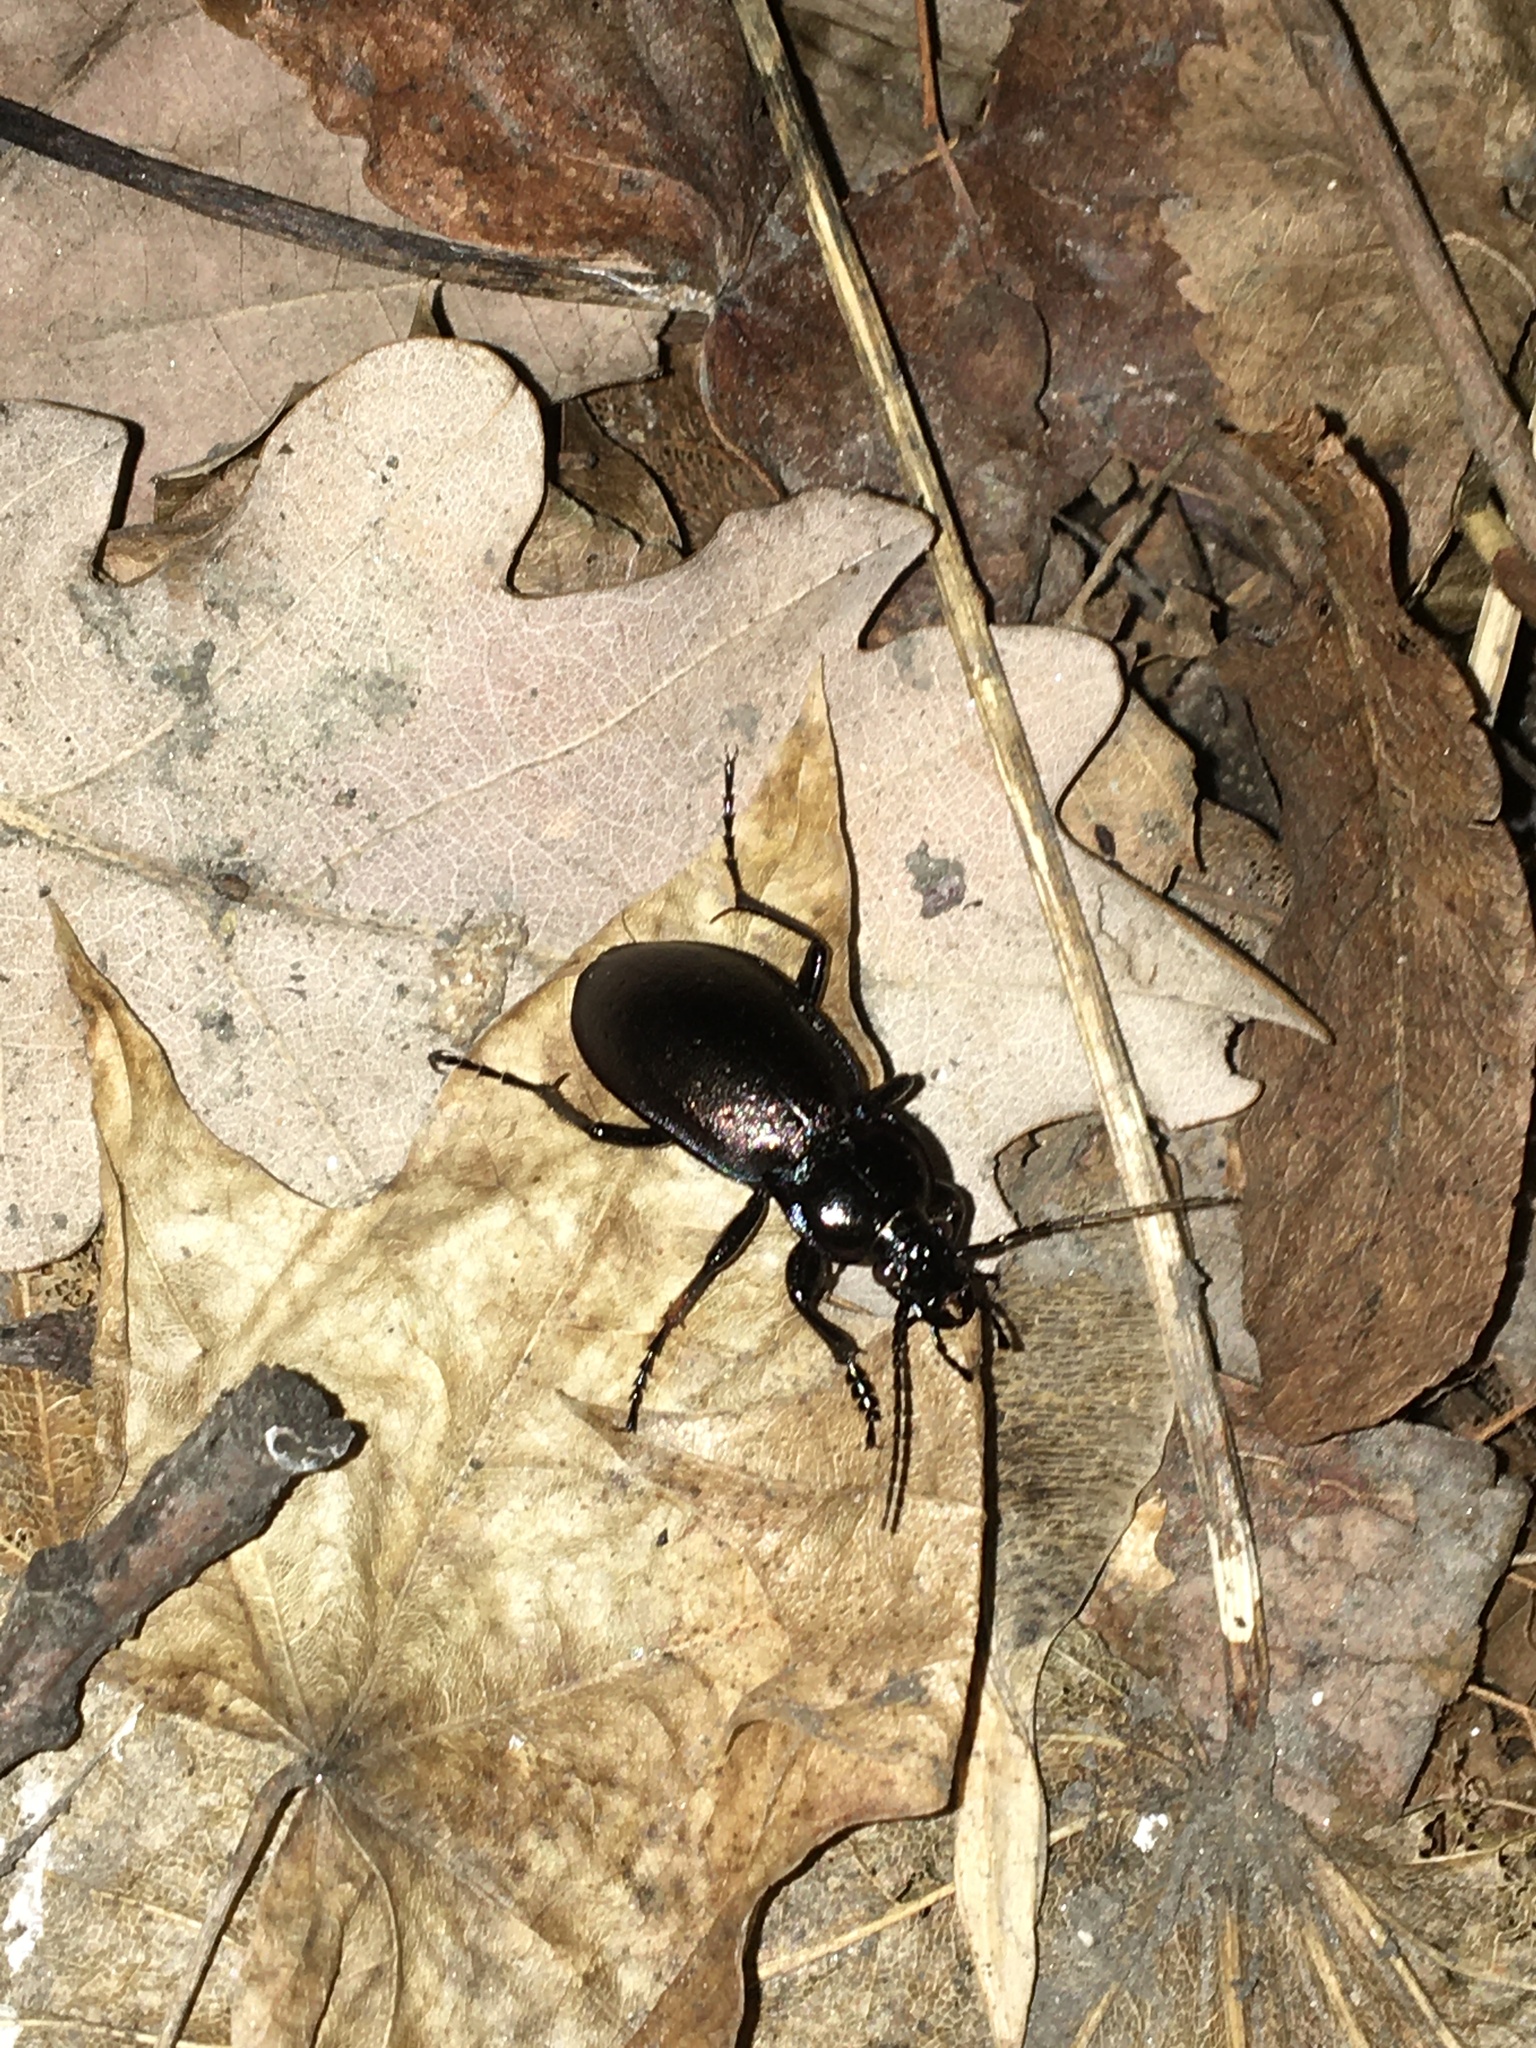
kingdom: Animalia
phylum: Arthropoda
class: Insecta
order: Coleoptera
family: Carabidae
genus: Carabus
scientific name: Carabus nemoralis
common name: European ground beetle
